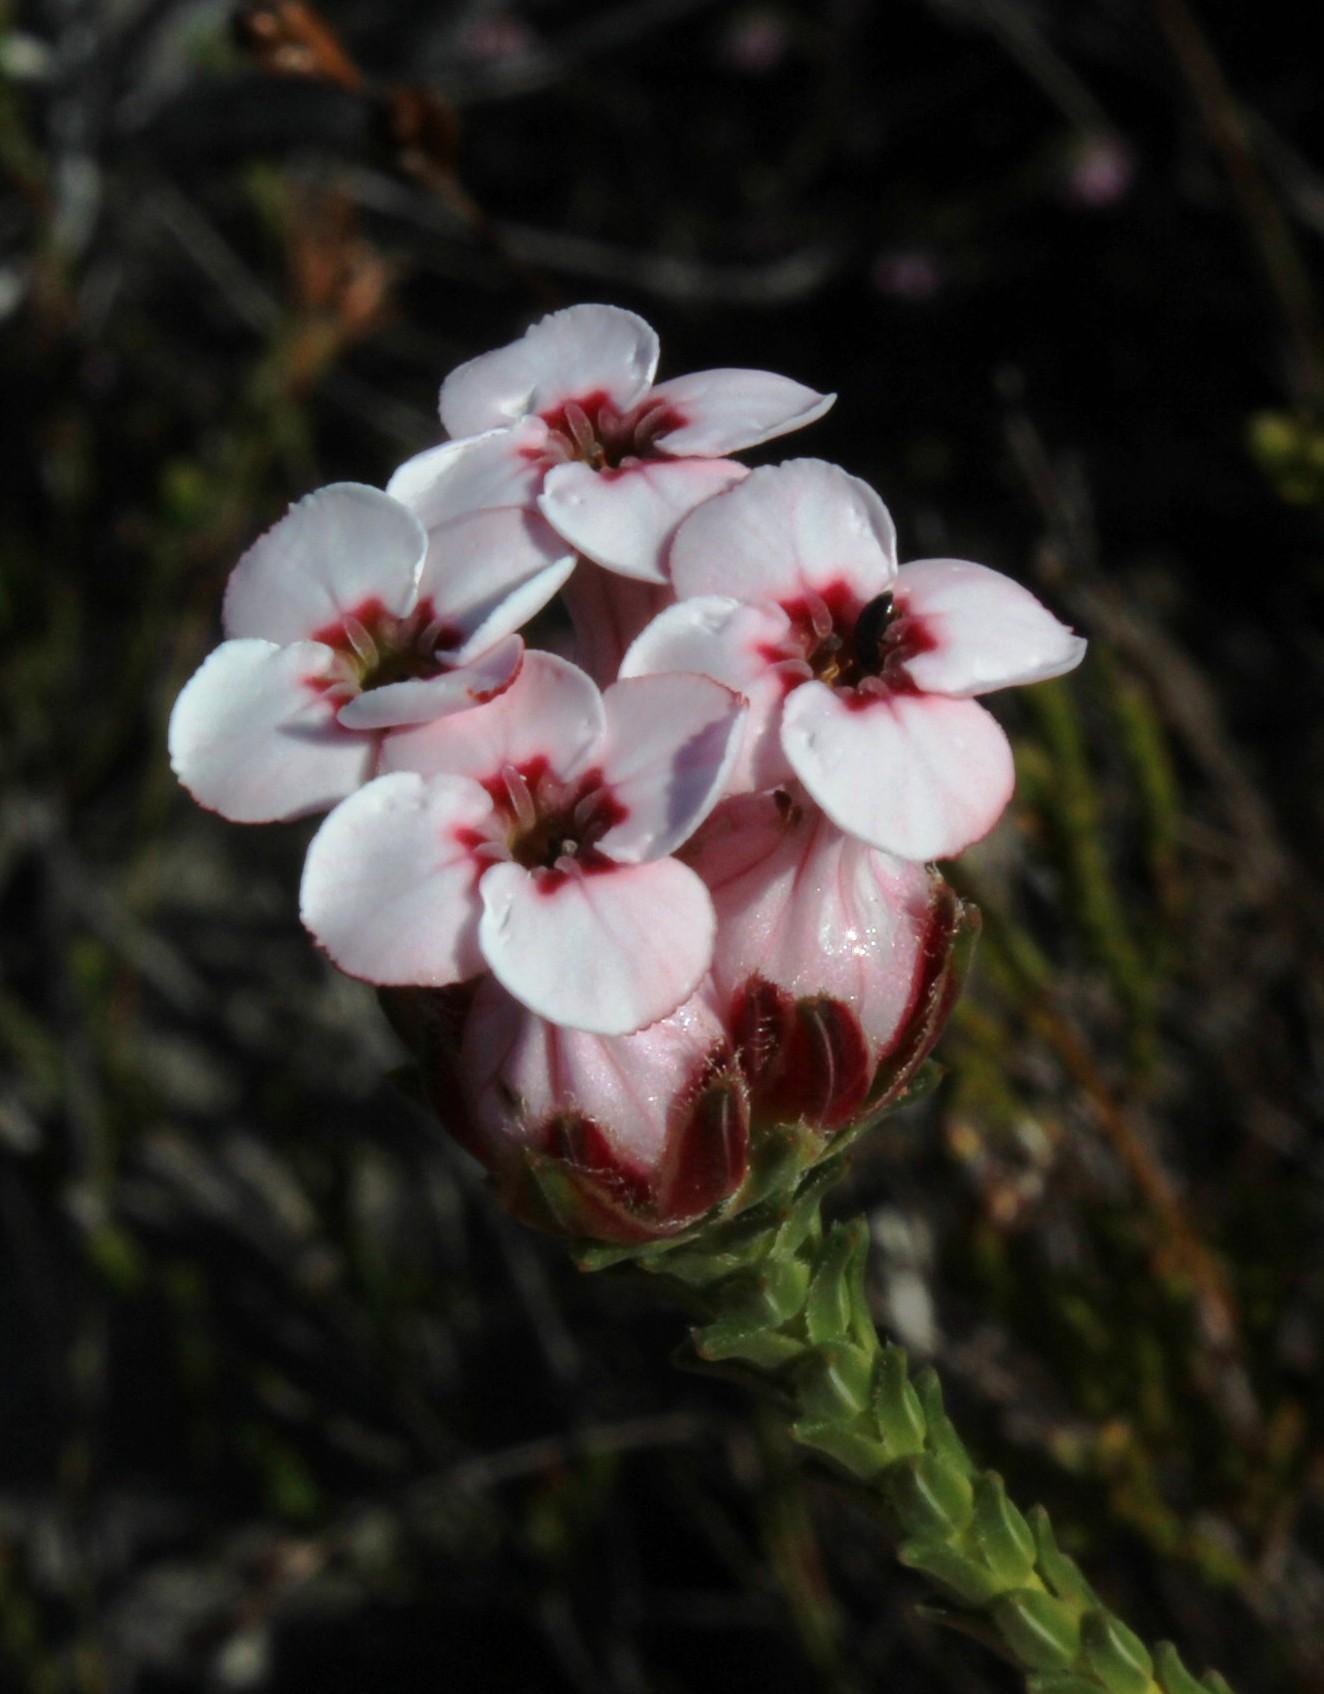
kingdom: Plantae
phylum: Tracheophyta
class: Magnoliopsida
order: Ericales
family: Ericaceae
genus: Erica
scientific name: Erica ampullacea
